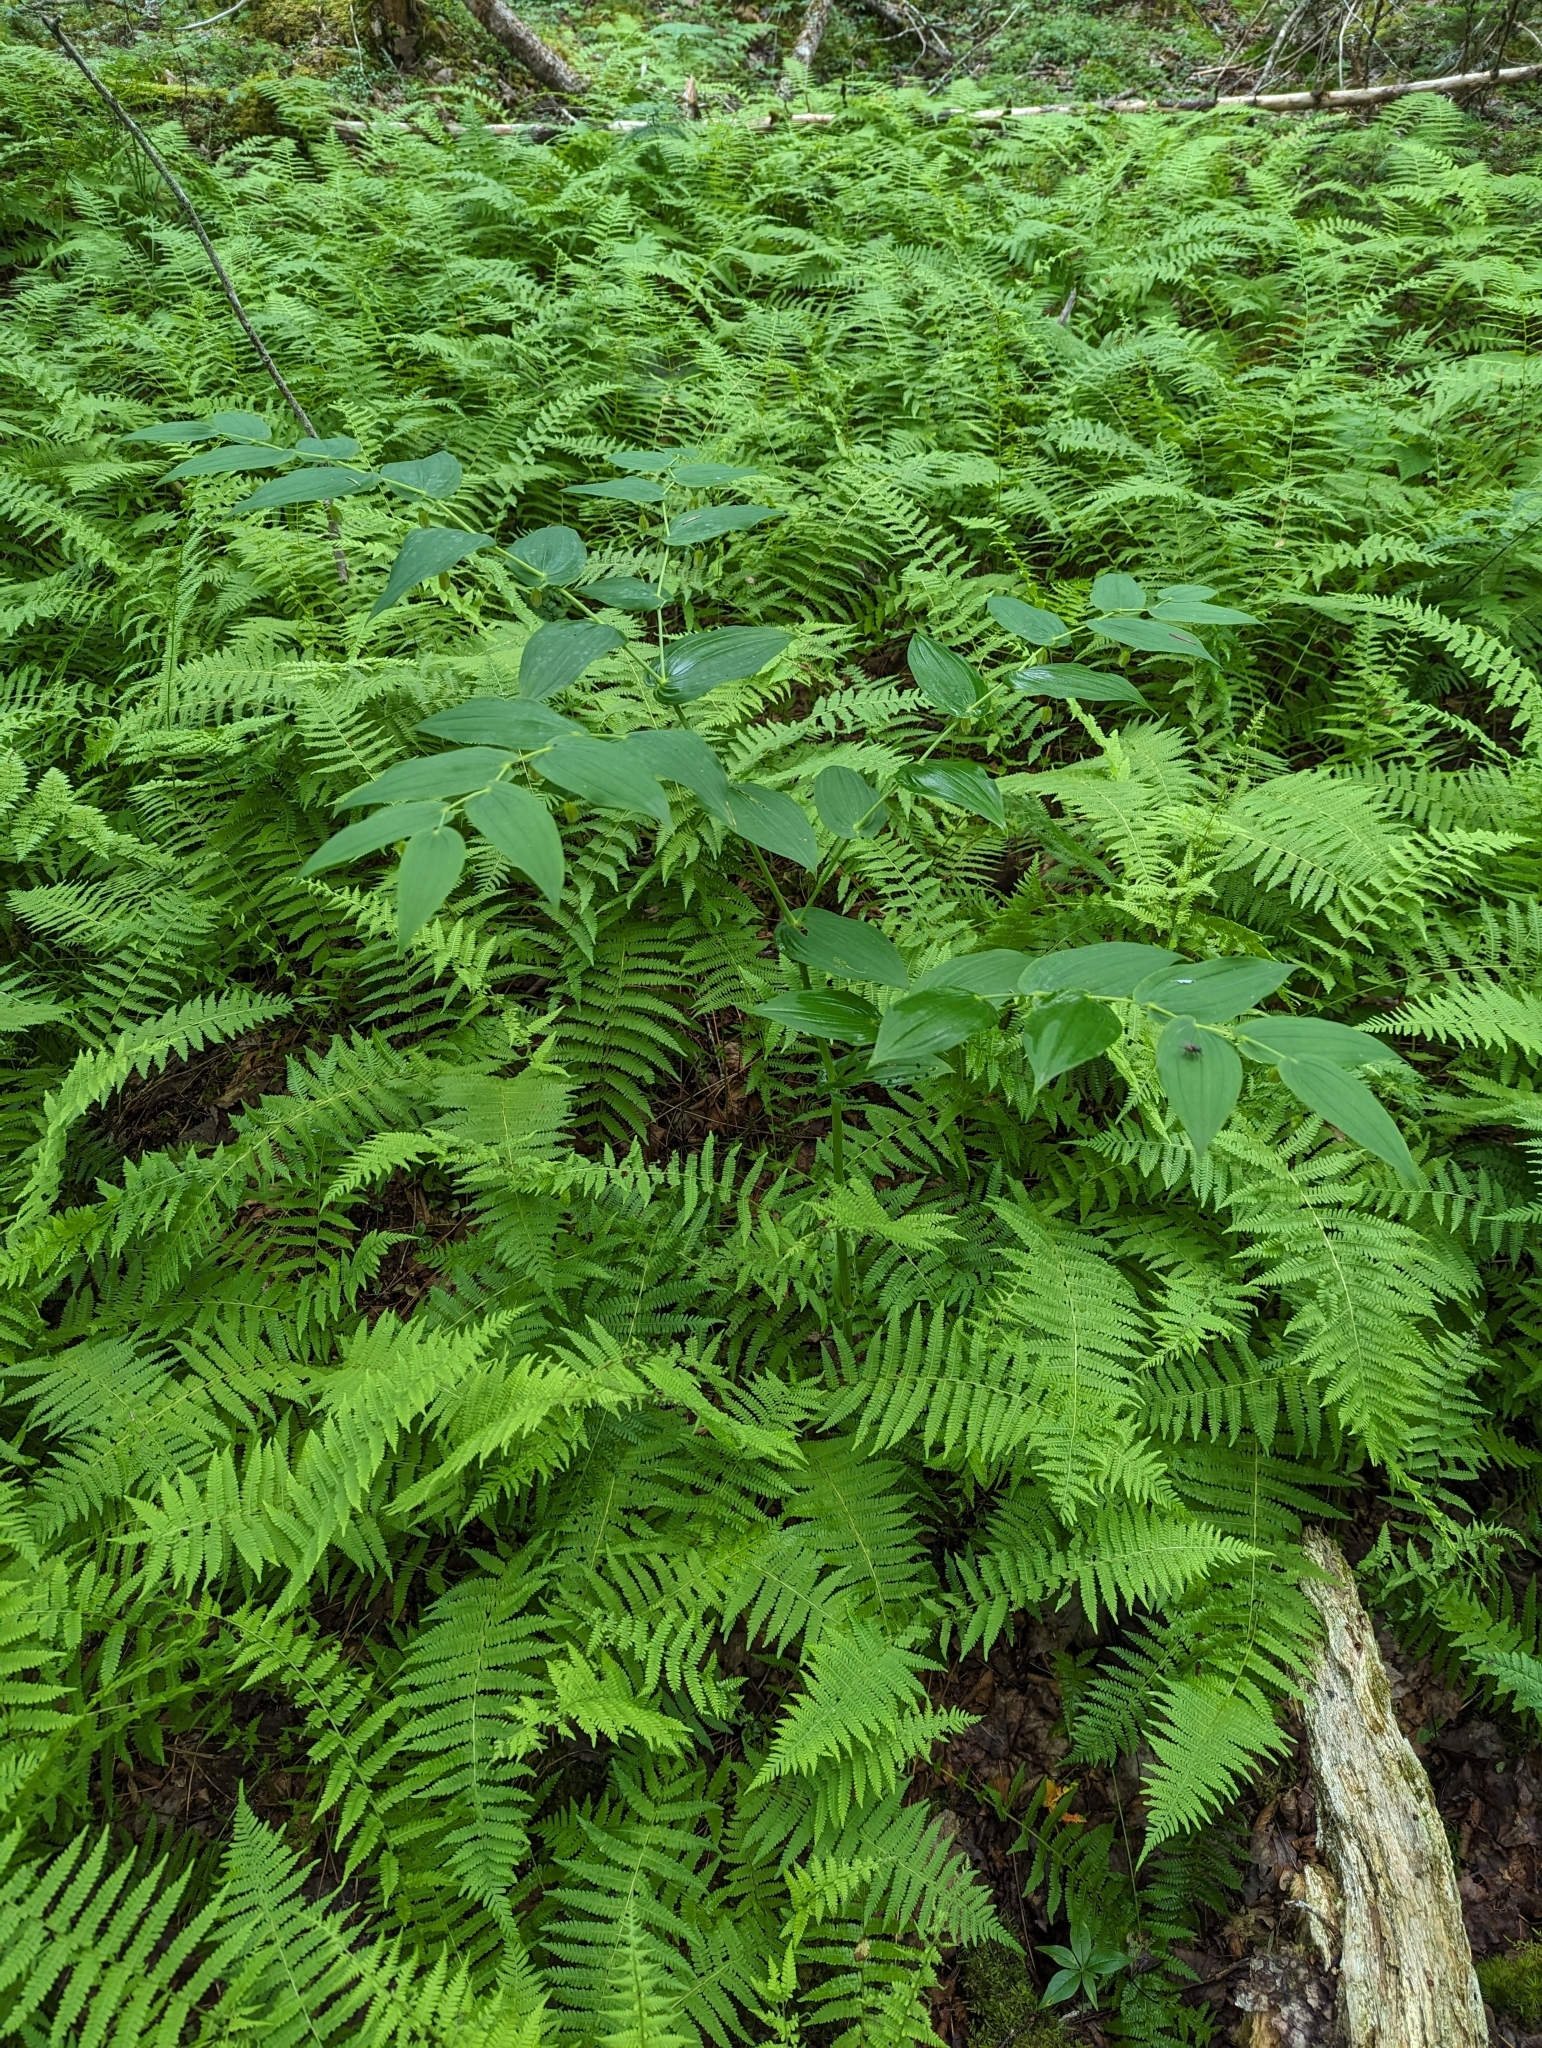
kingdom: Plantae
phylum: Tracheophyta
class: Liliopsida
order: Liliales
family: Liliaceae
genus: Streptopus
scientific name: Streptopus amplexifolius
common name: Clasp twisted stalk
